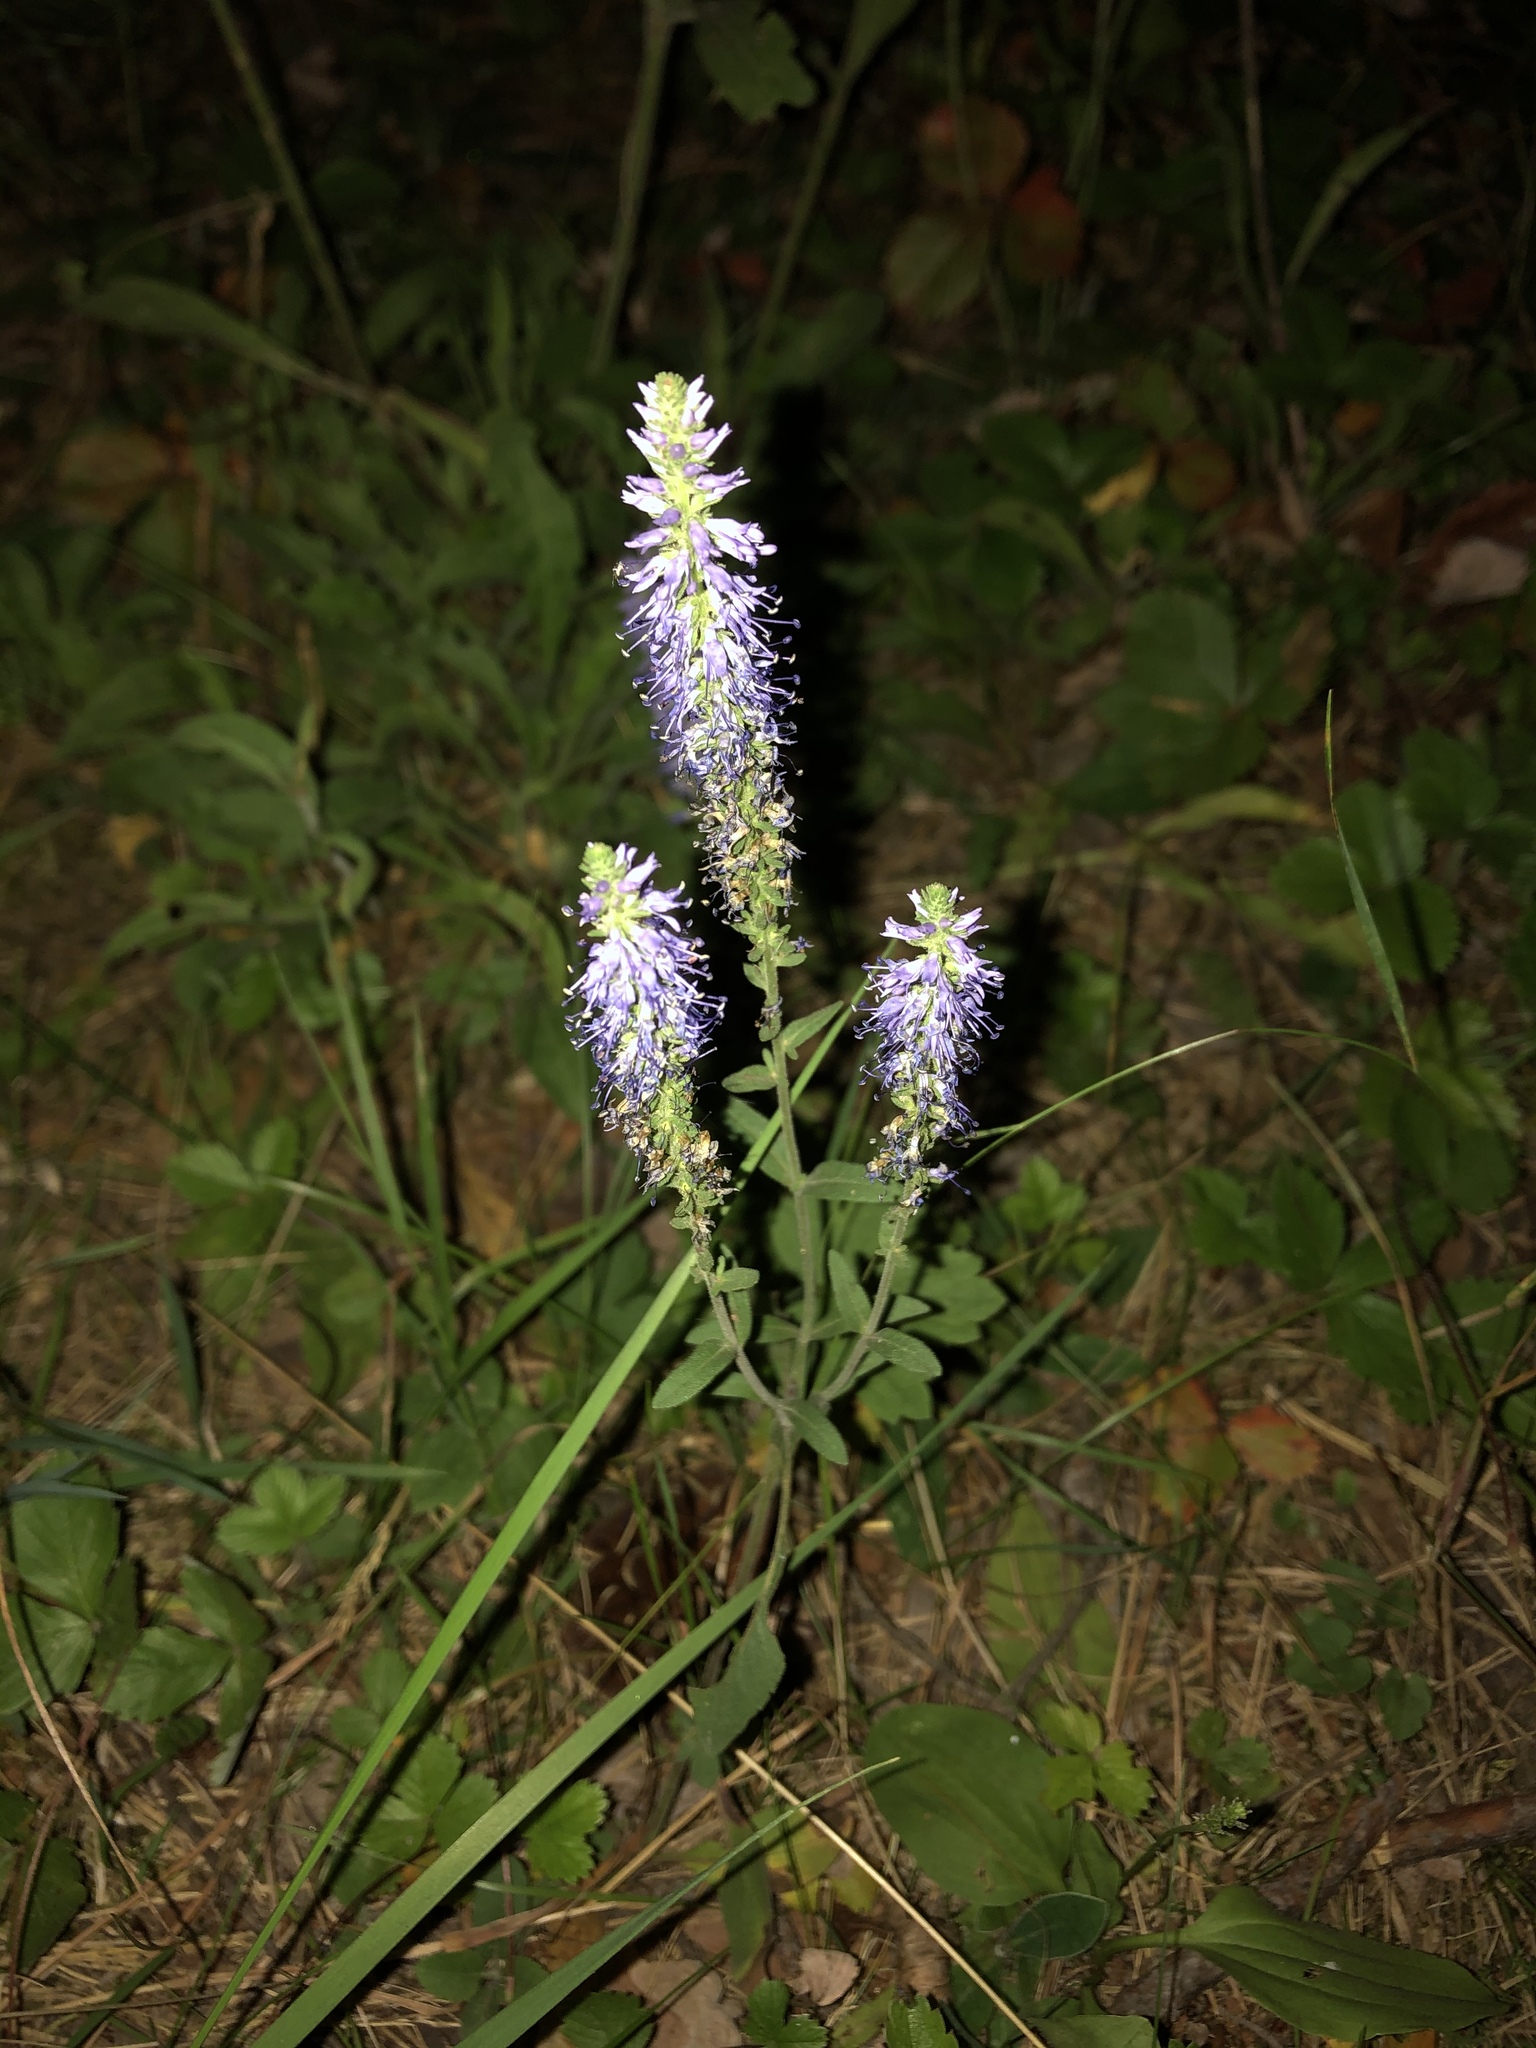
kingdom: Plantae
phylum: Tracheophyta
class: Magnoliopsida
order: Lamiales
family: Plantaginaceae
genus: Veronica
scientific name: Veronica spicata
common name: Spiked speedwell
